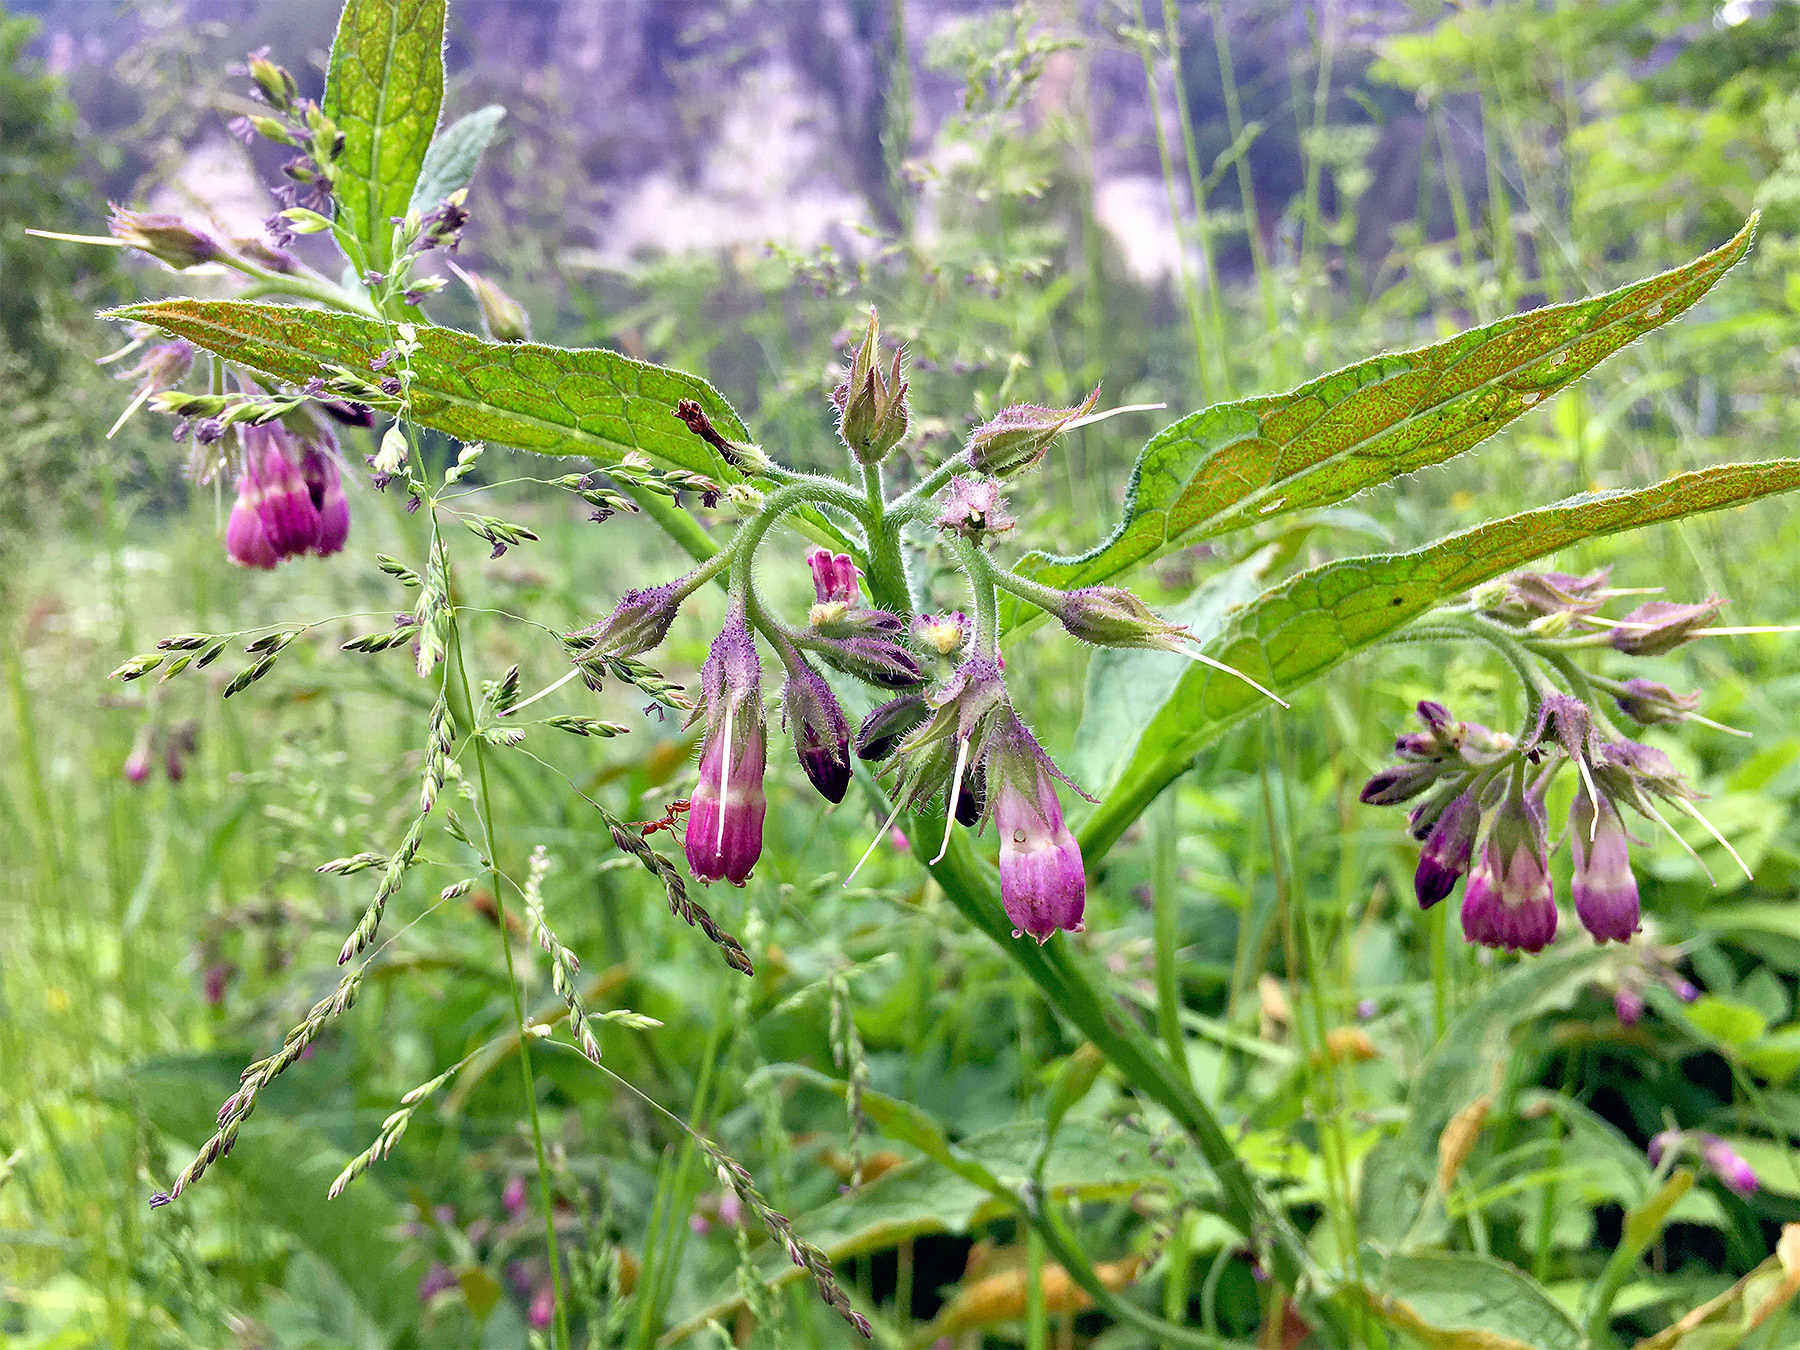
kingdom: Plantae
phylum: Tracheophyta
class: Magnoliopsida
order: Boraginales
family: Boraginaceae
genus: Symphytum
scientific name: Symphytum officinale
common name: Common comfrey
